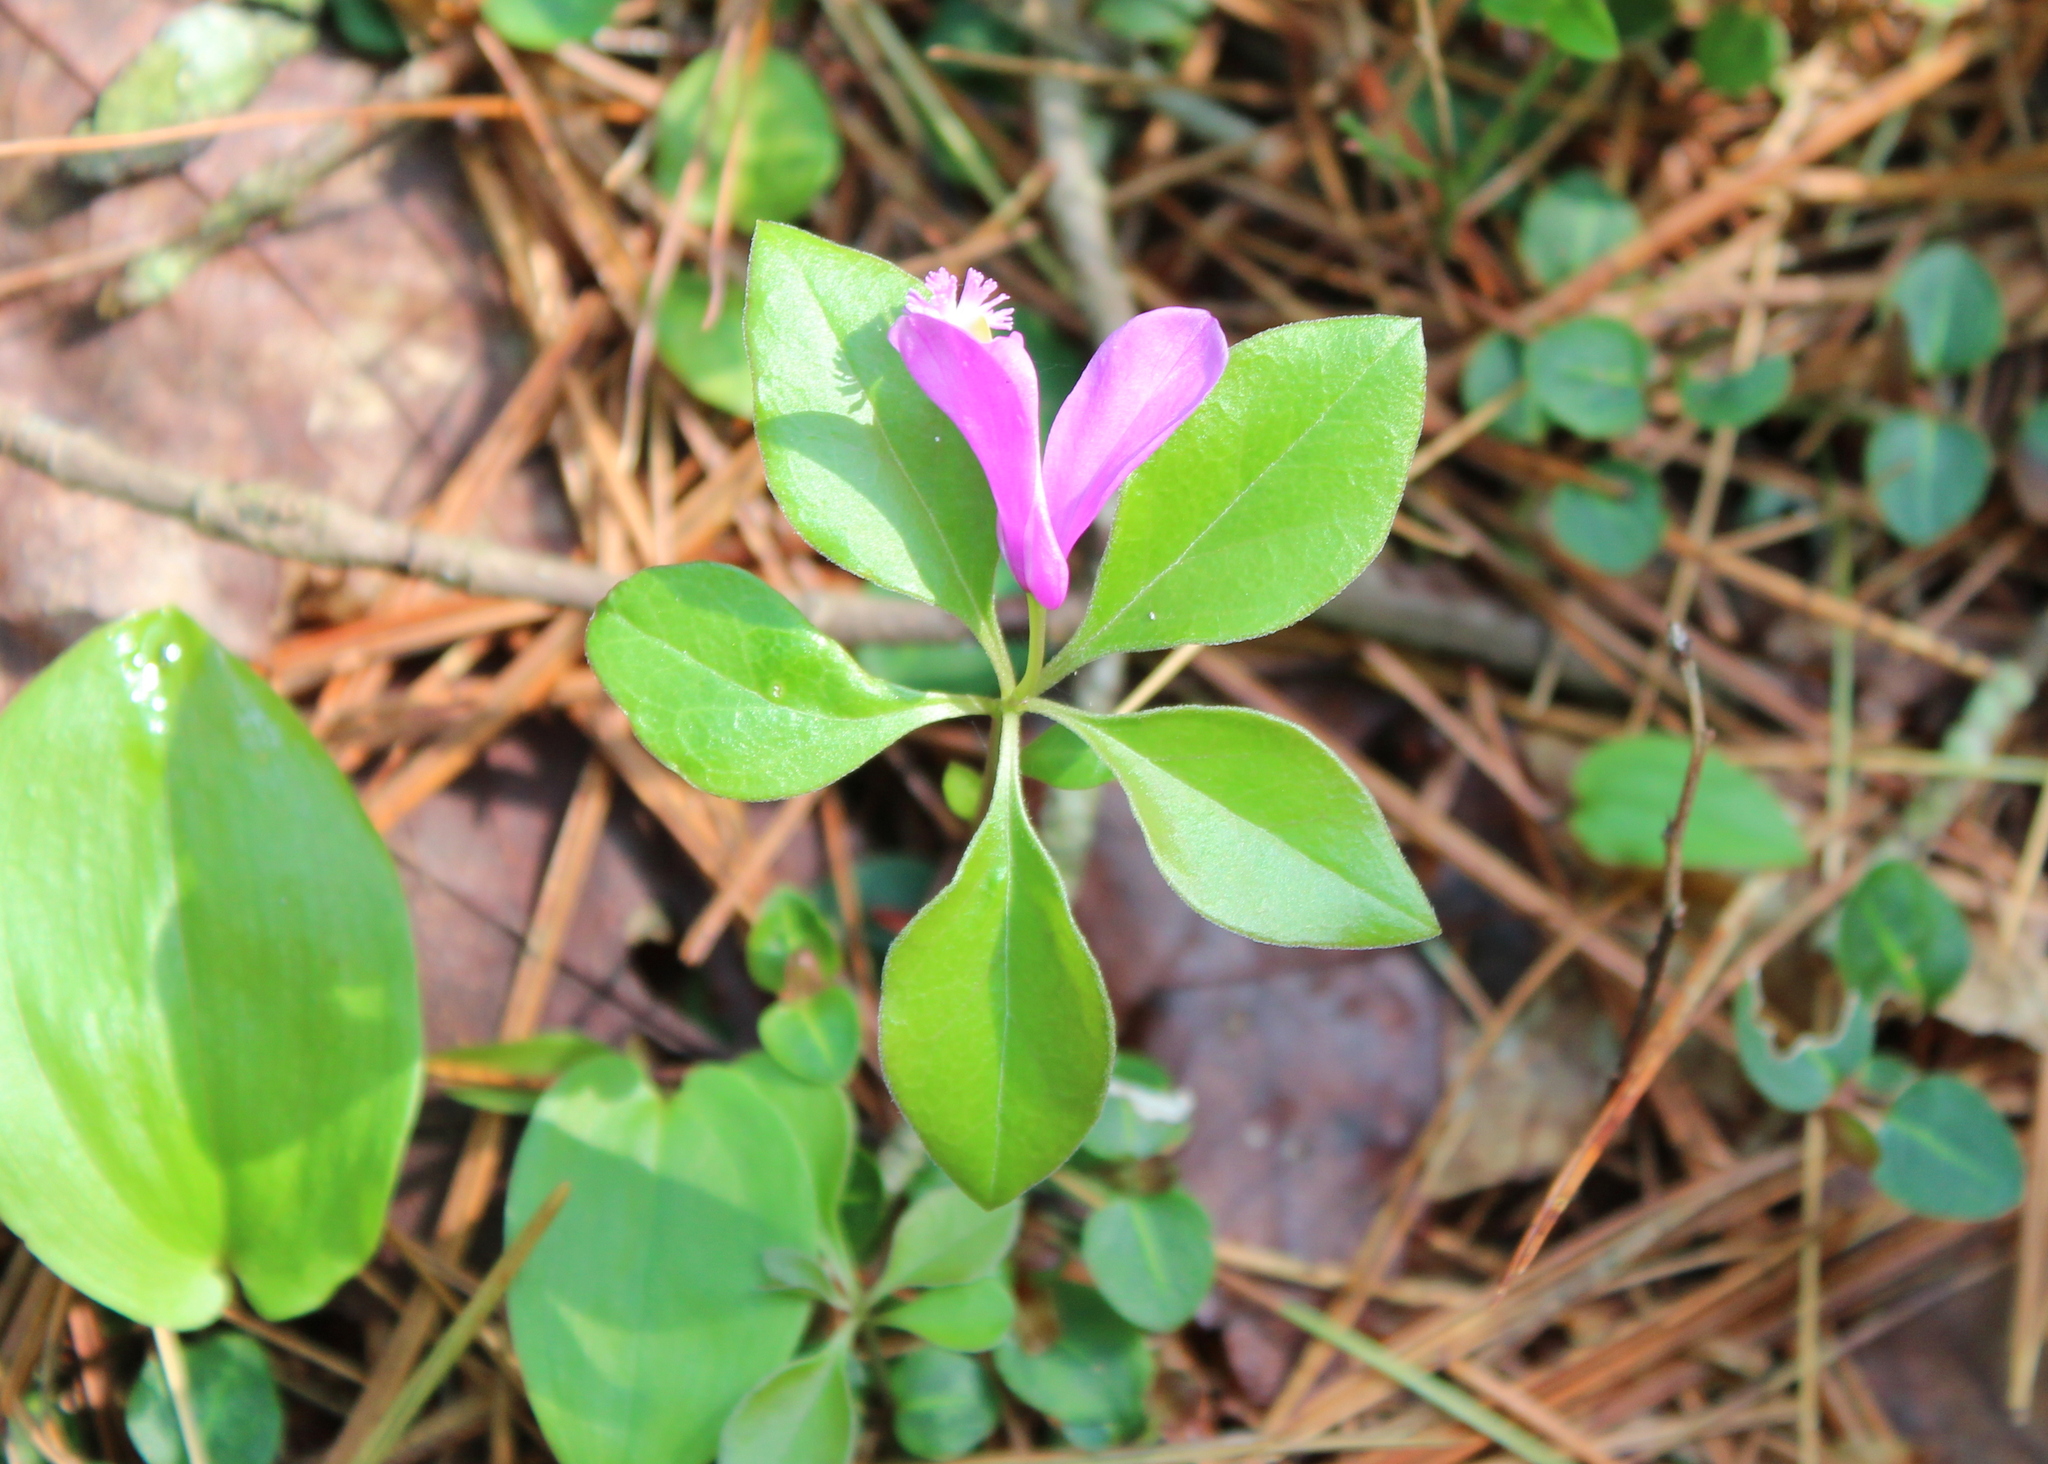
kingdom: Plantae
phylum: Tracheophyta
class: Magnoliopsida
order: Fabales
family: Polygalaceae
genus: Polygaloides
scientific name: Polygaloides paucifolia
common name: Bird-on-the-wing
